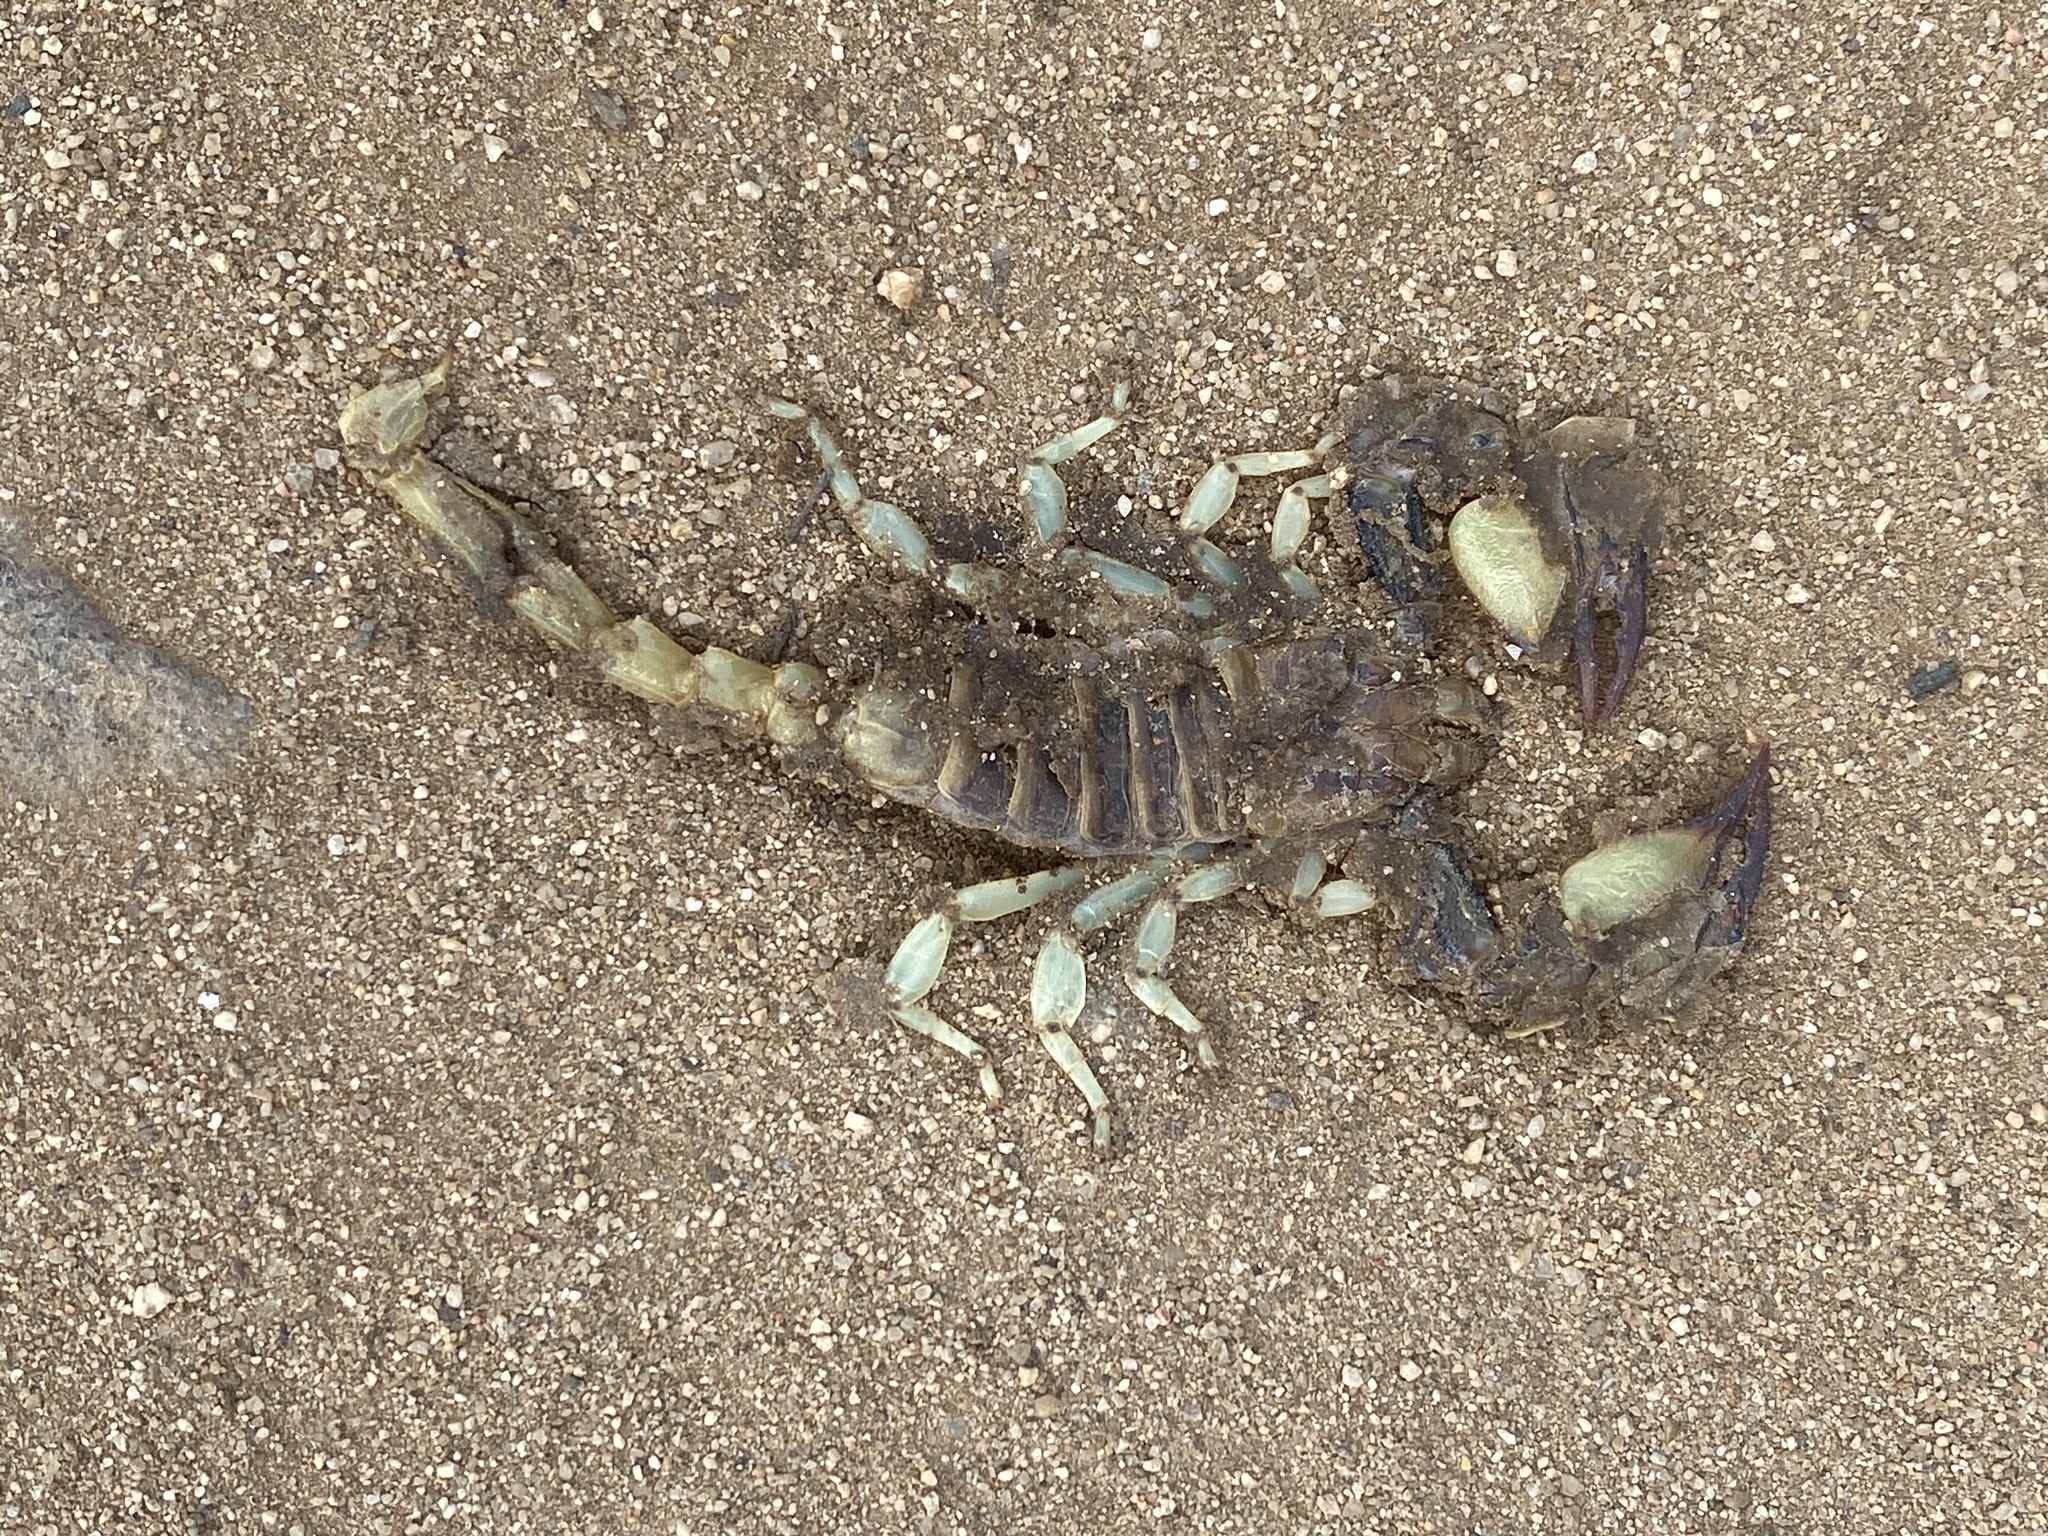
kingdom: Animalia
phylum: Arthropoda
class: Arachnida
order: Scorpiones
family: Scorpionidae
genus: Opistophthalmus
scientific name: Opistophthalmus carinatus
